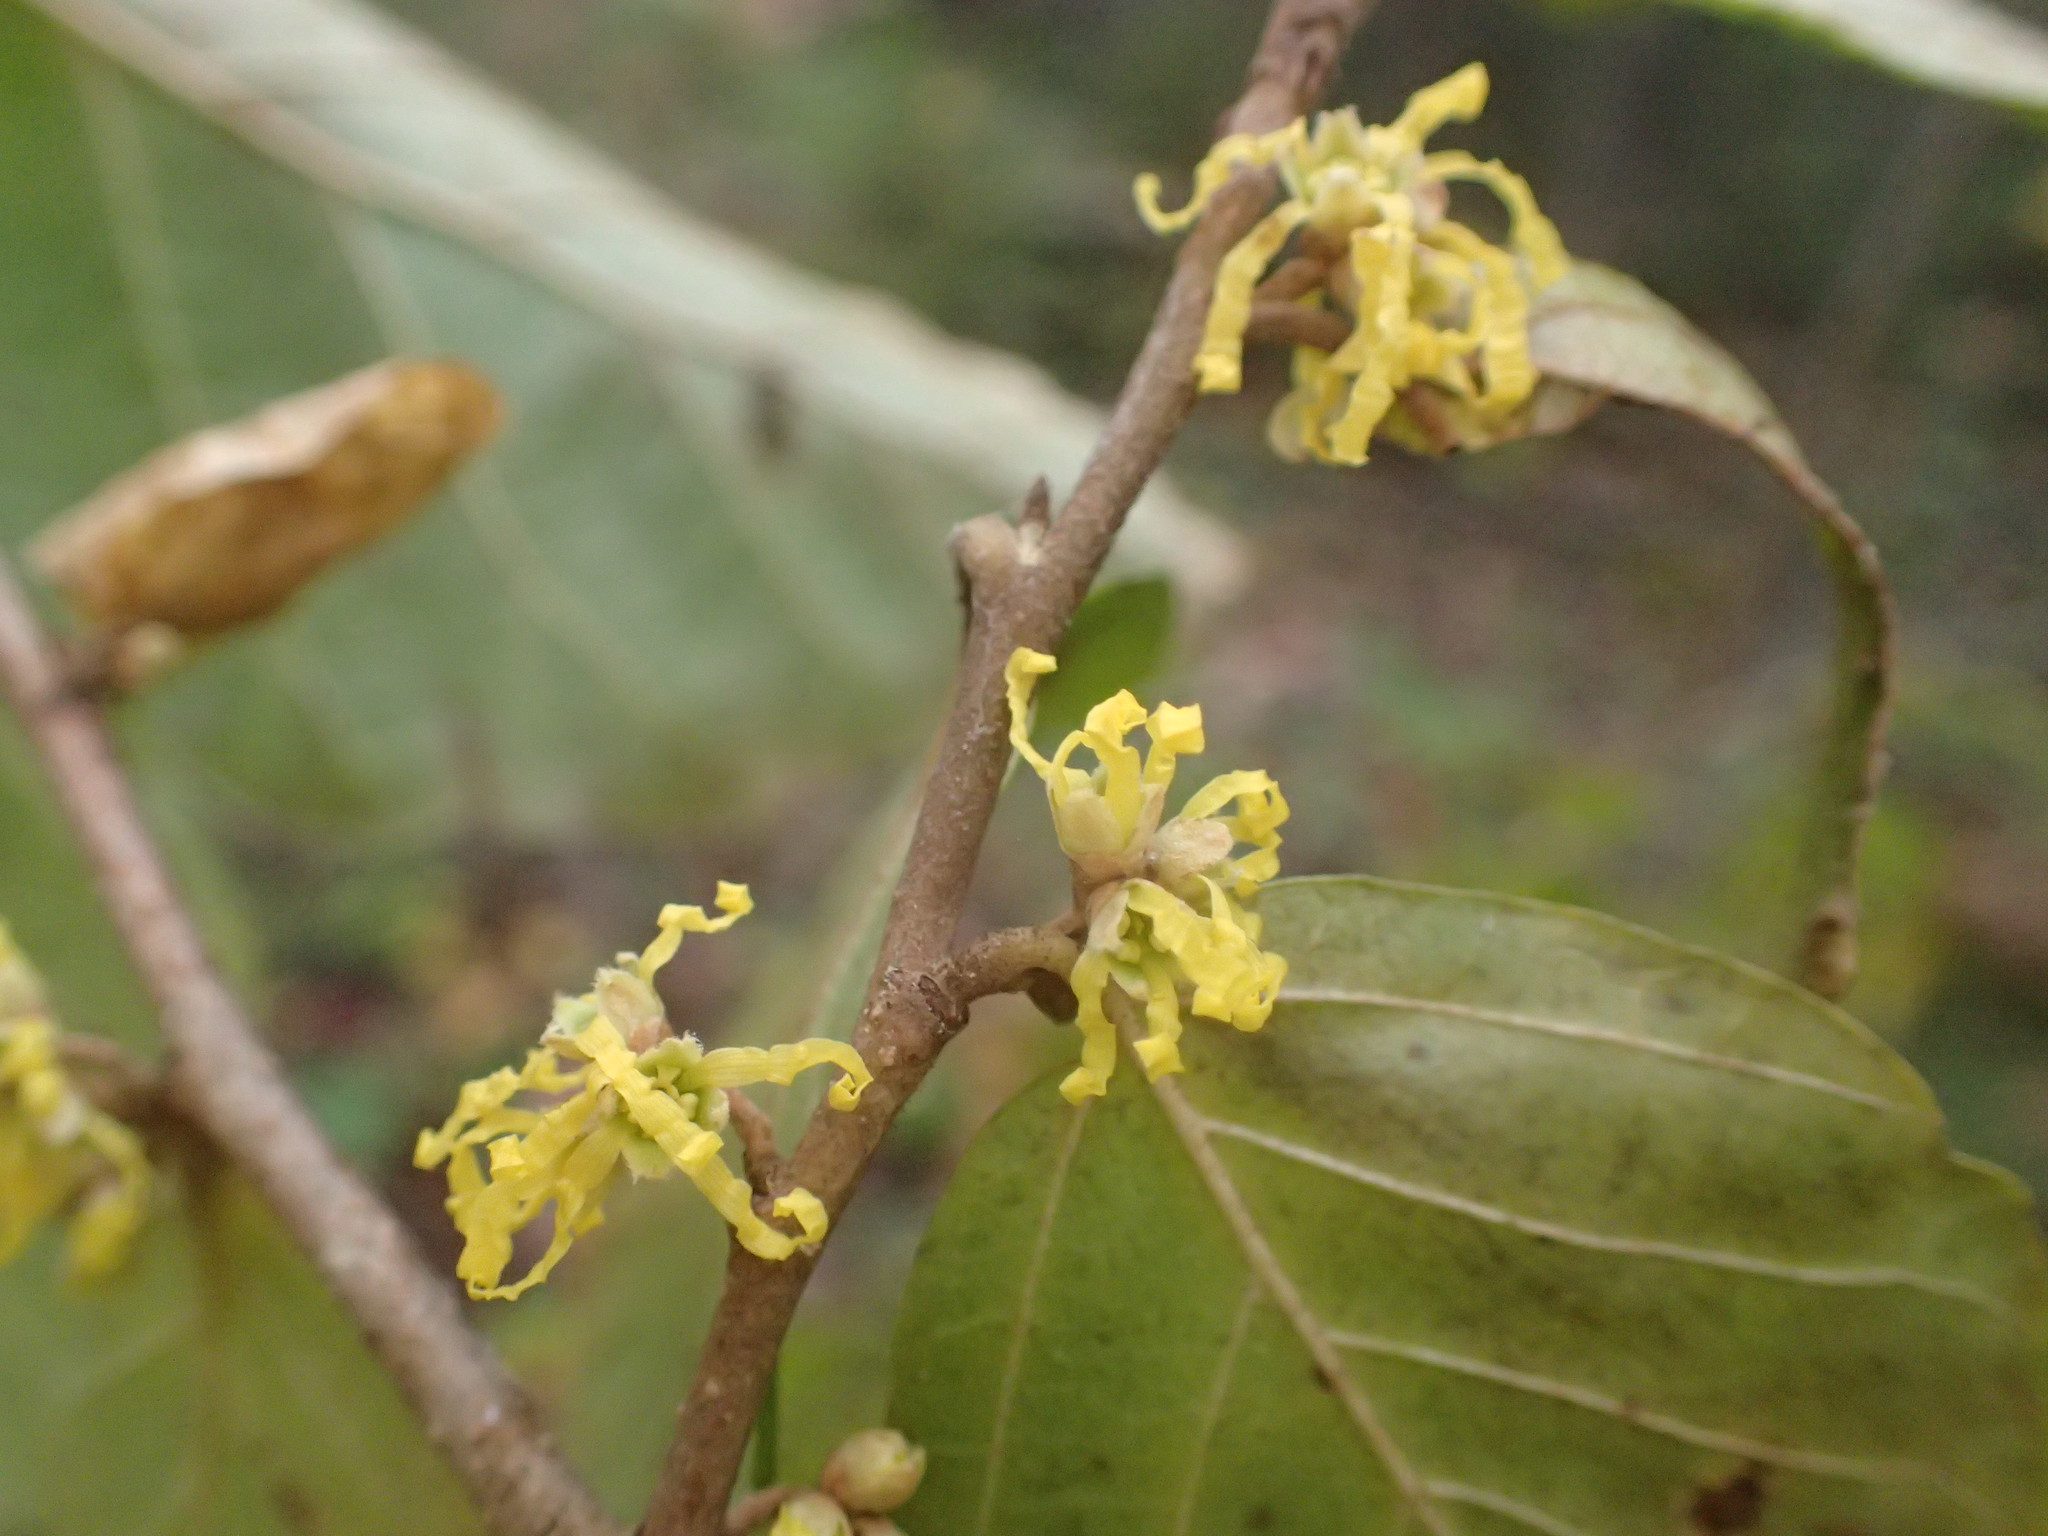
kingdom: Plantae
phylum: Tracheophyta
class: Magnoliopsida
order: Saxifragales
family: Hamamelidaceae
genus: Hamamelis
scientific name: Hamamelis virginiana
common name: Witch-hazel
